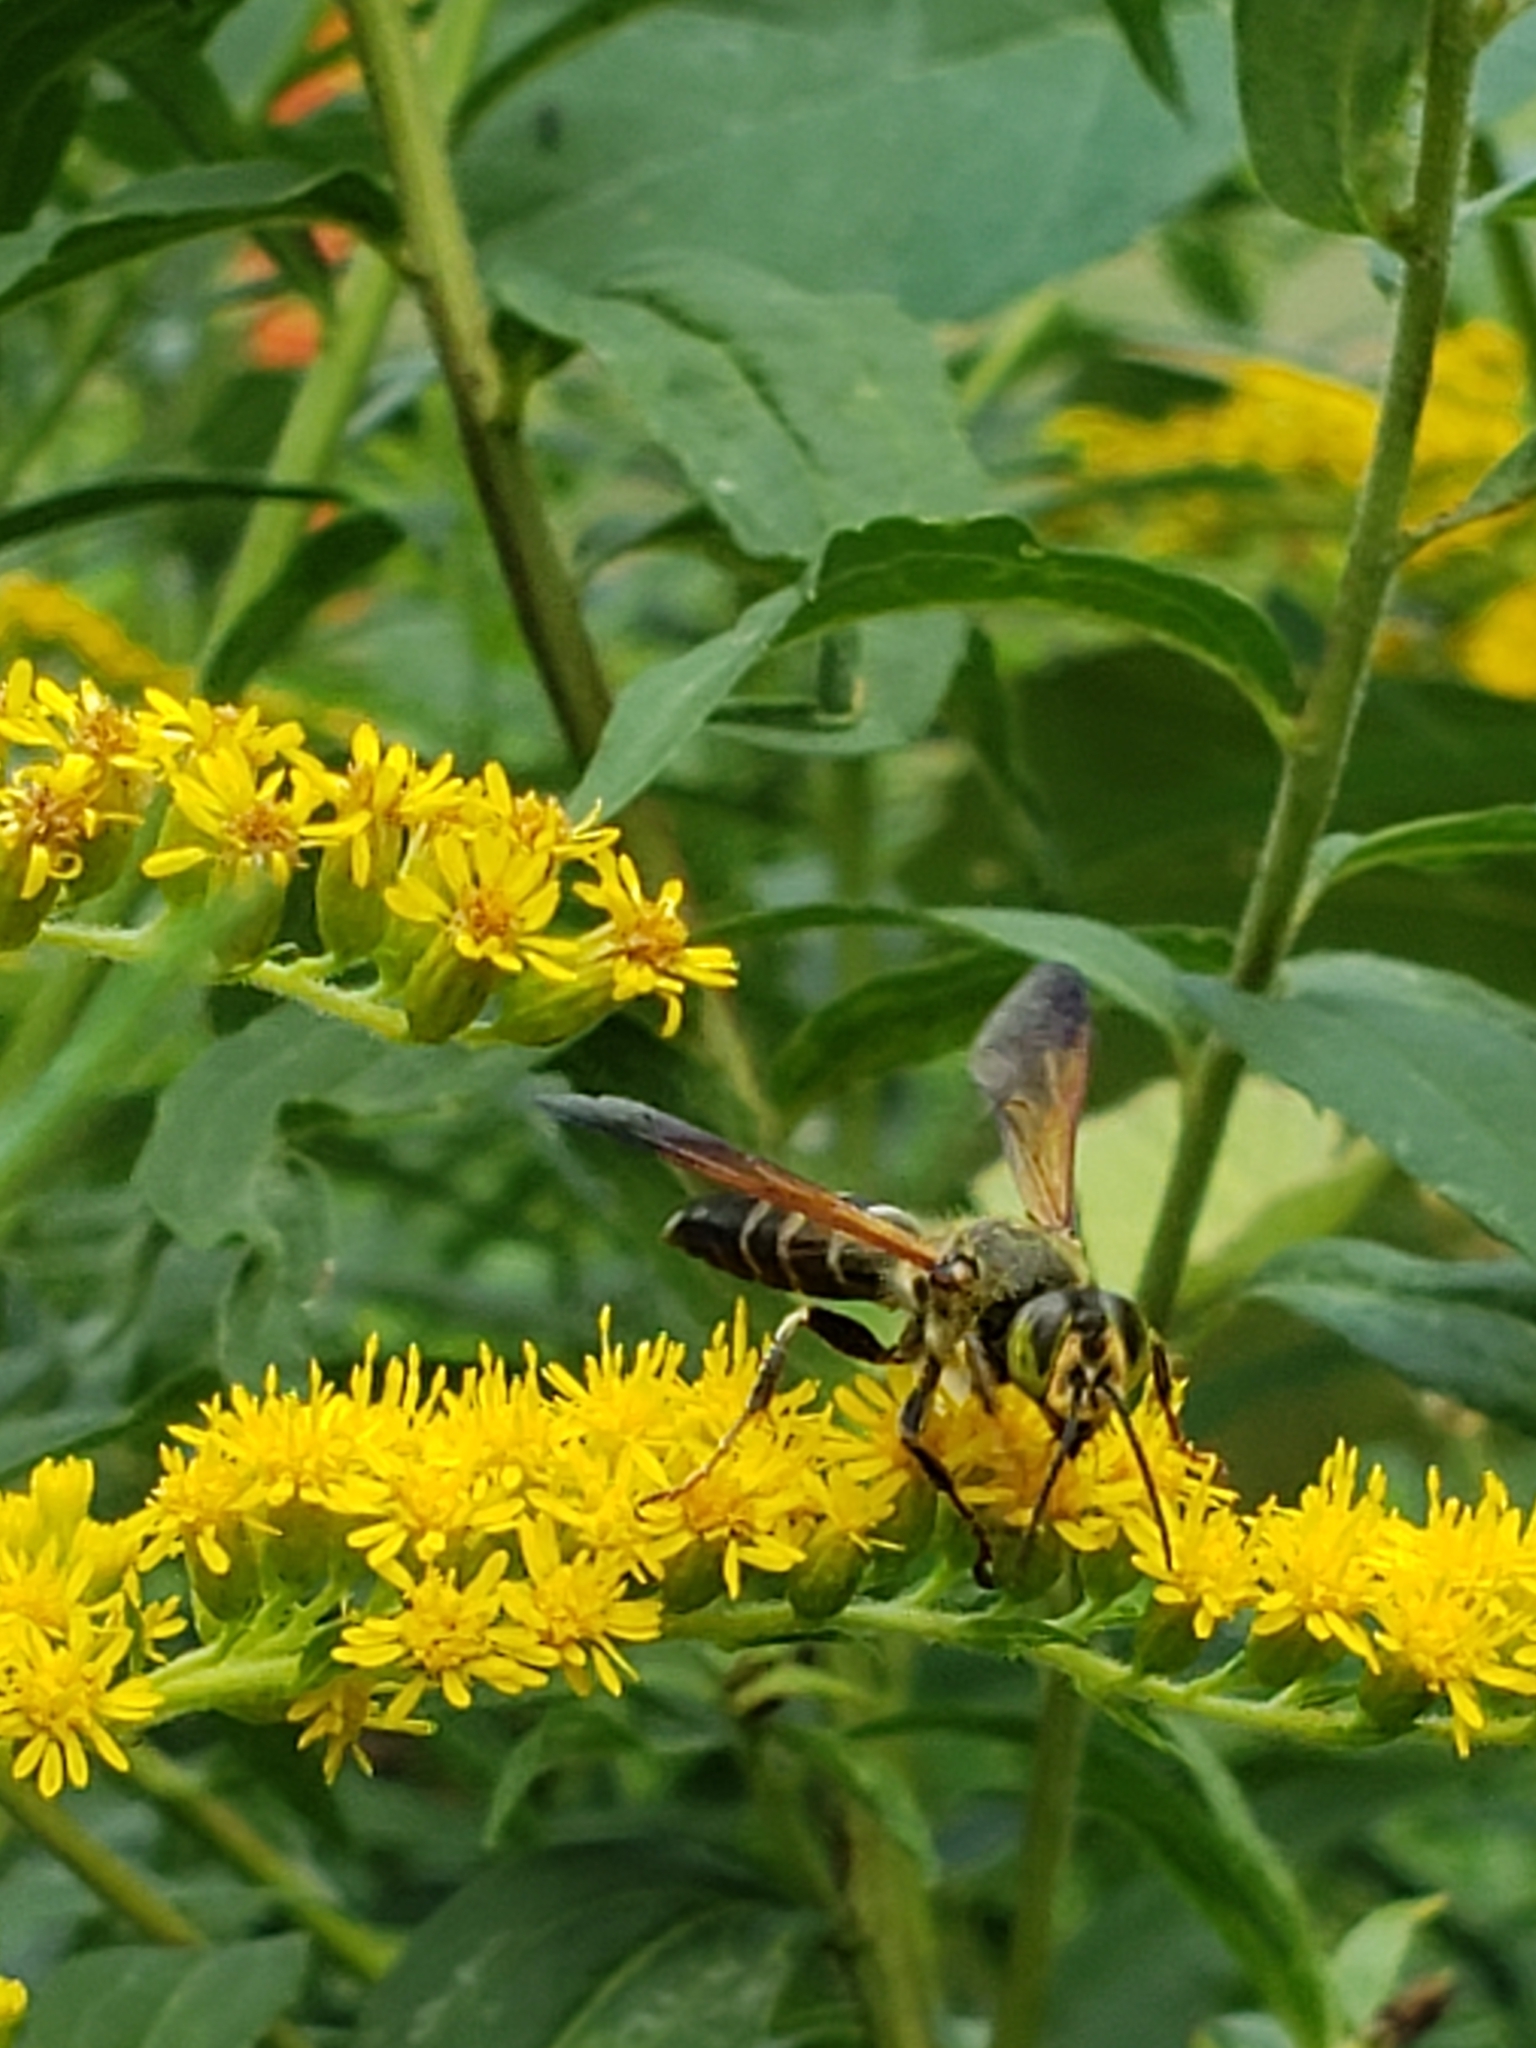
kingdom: Animalia
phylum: Arthropoda
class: Insecta
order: Hymenoptera
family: Crabronidae
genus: Tachytes
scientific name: Tachytes
